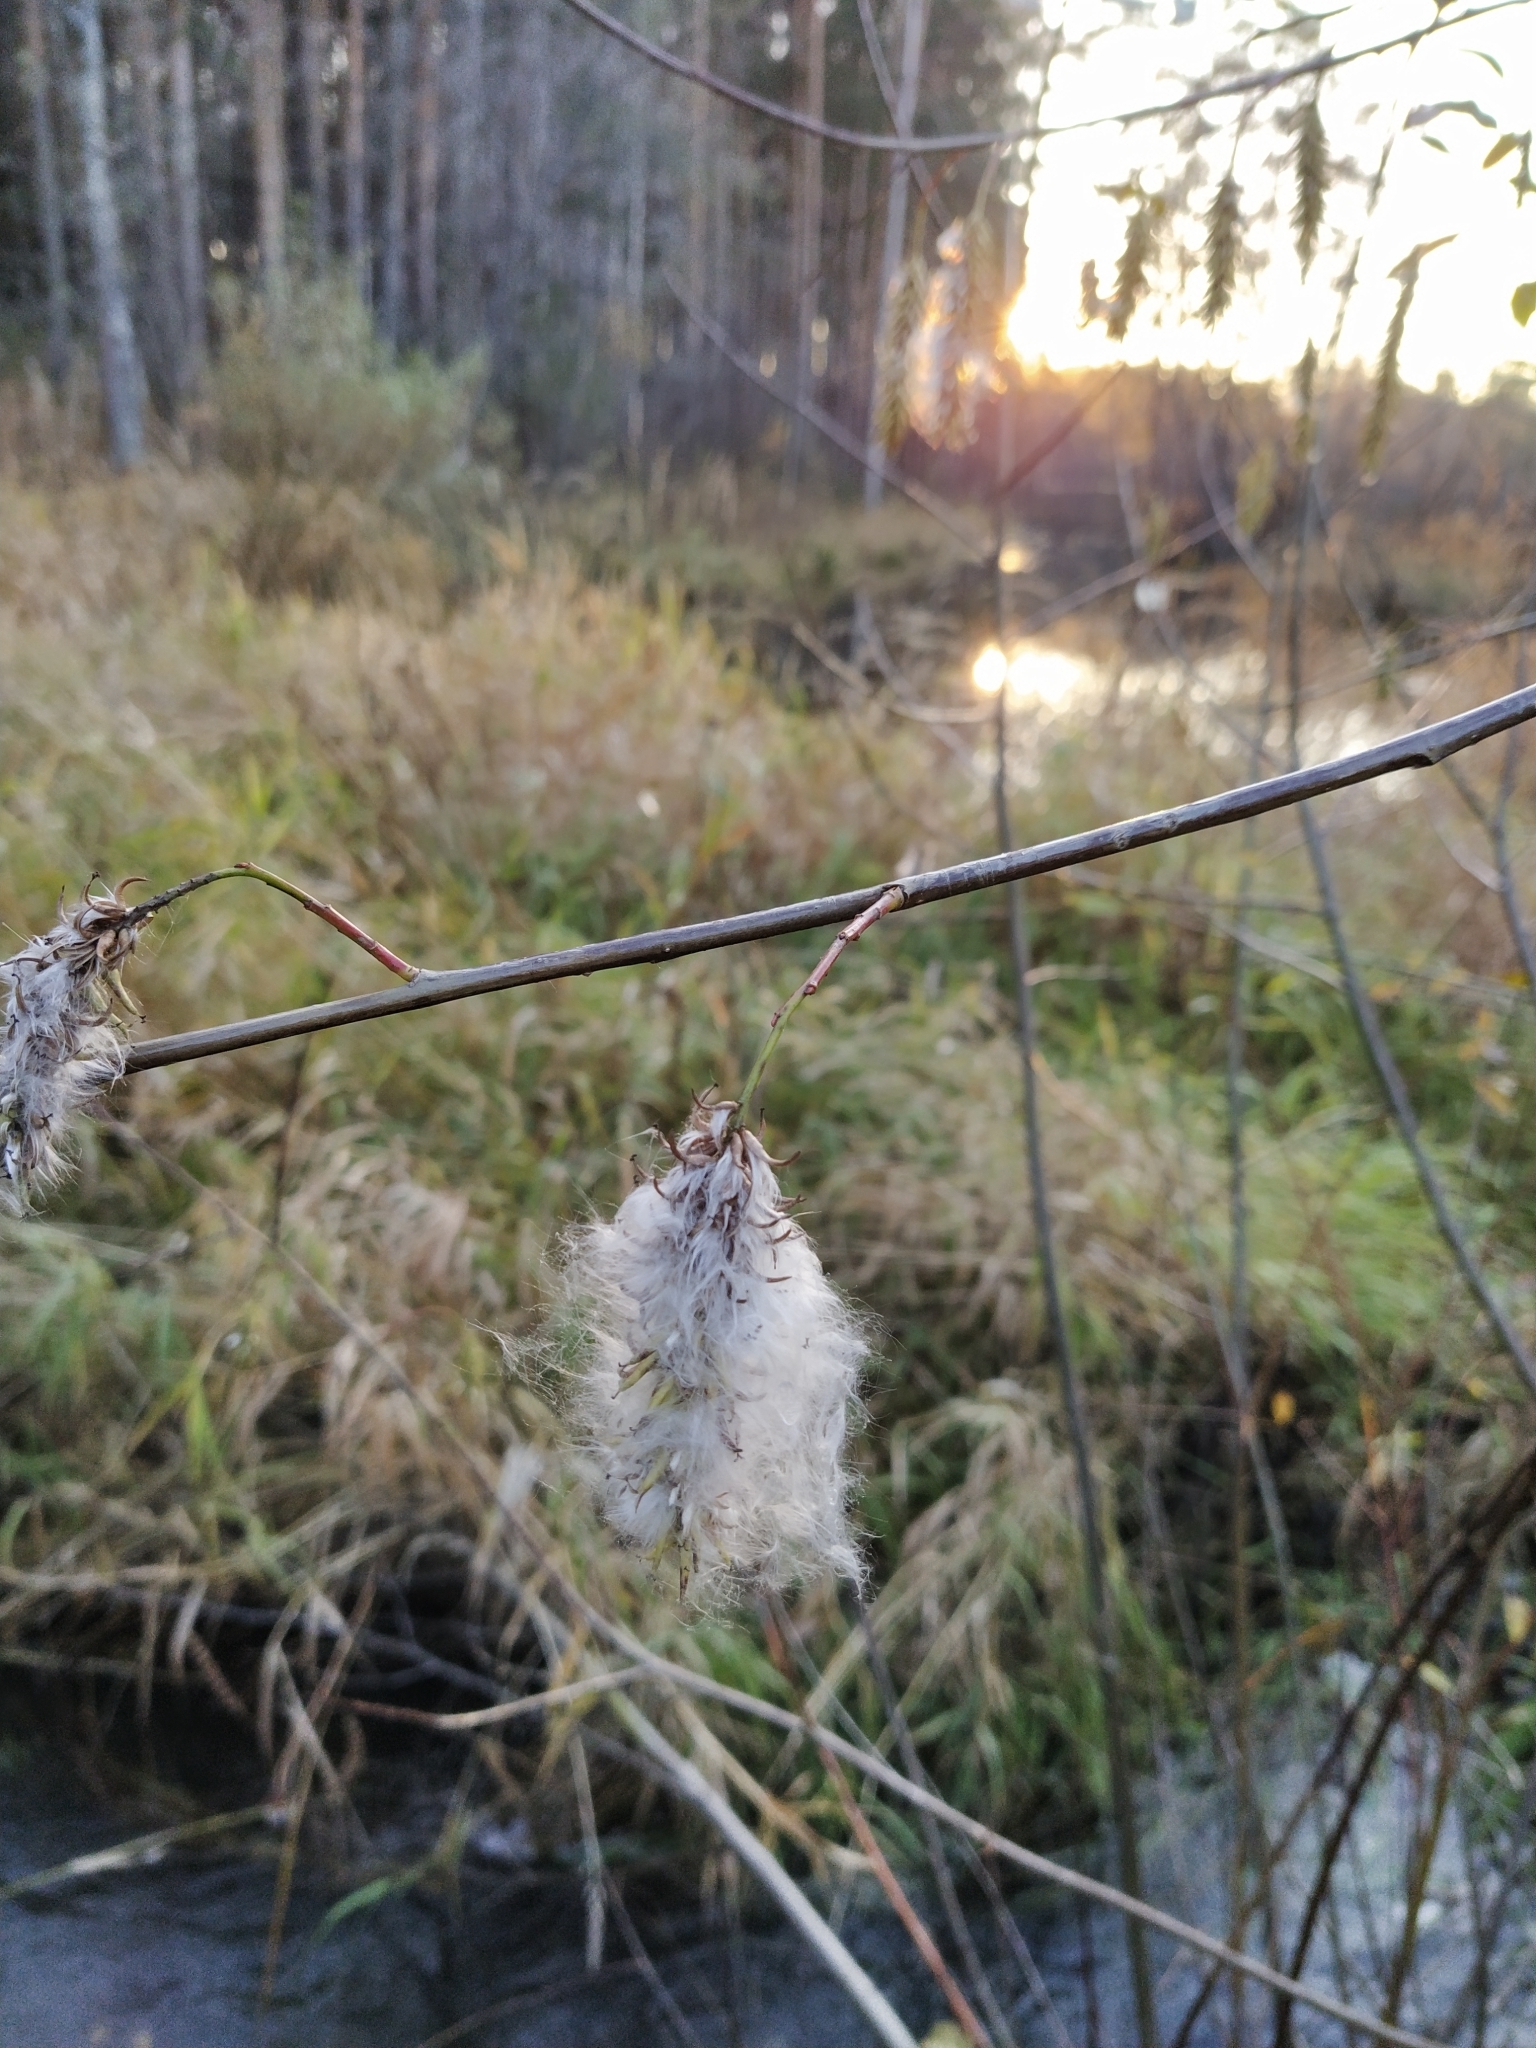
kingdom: Plantae
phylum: Tracheophyta
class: Magnoliopsida
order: Malpighiales
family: Salicaceae
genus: Salix
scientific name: Salix pentandra
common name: Bay willow
